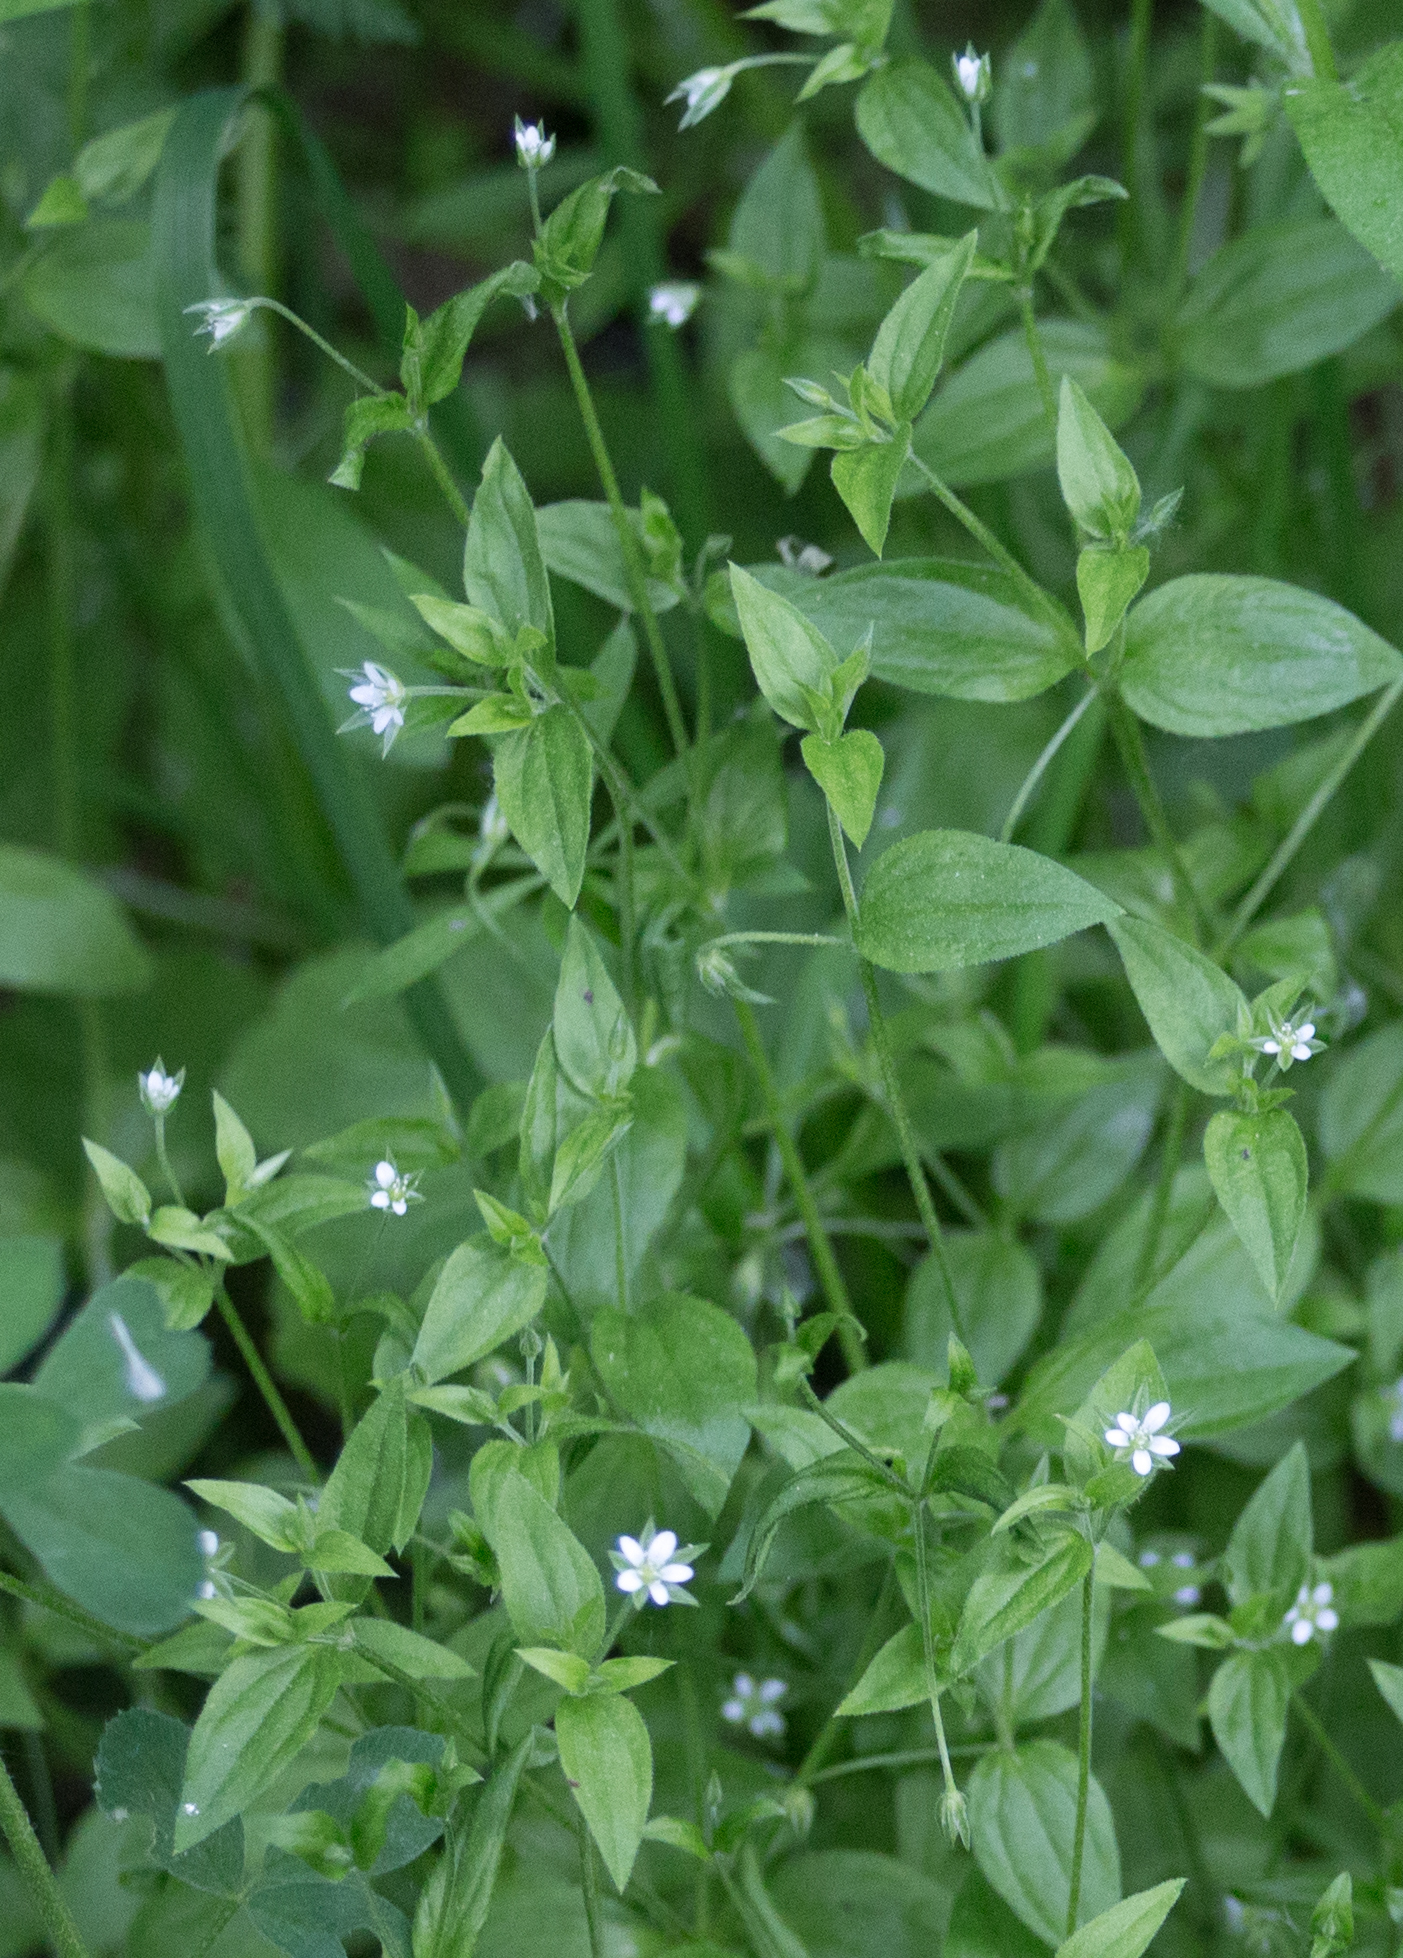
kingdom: Plantae
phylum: Tracheophyta
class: Magnoliopsida
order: Caryophyllales
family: Caryophyllaceae
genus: Moehringia
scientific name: Moehringia trinervia
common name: Three-nerved sandwort
